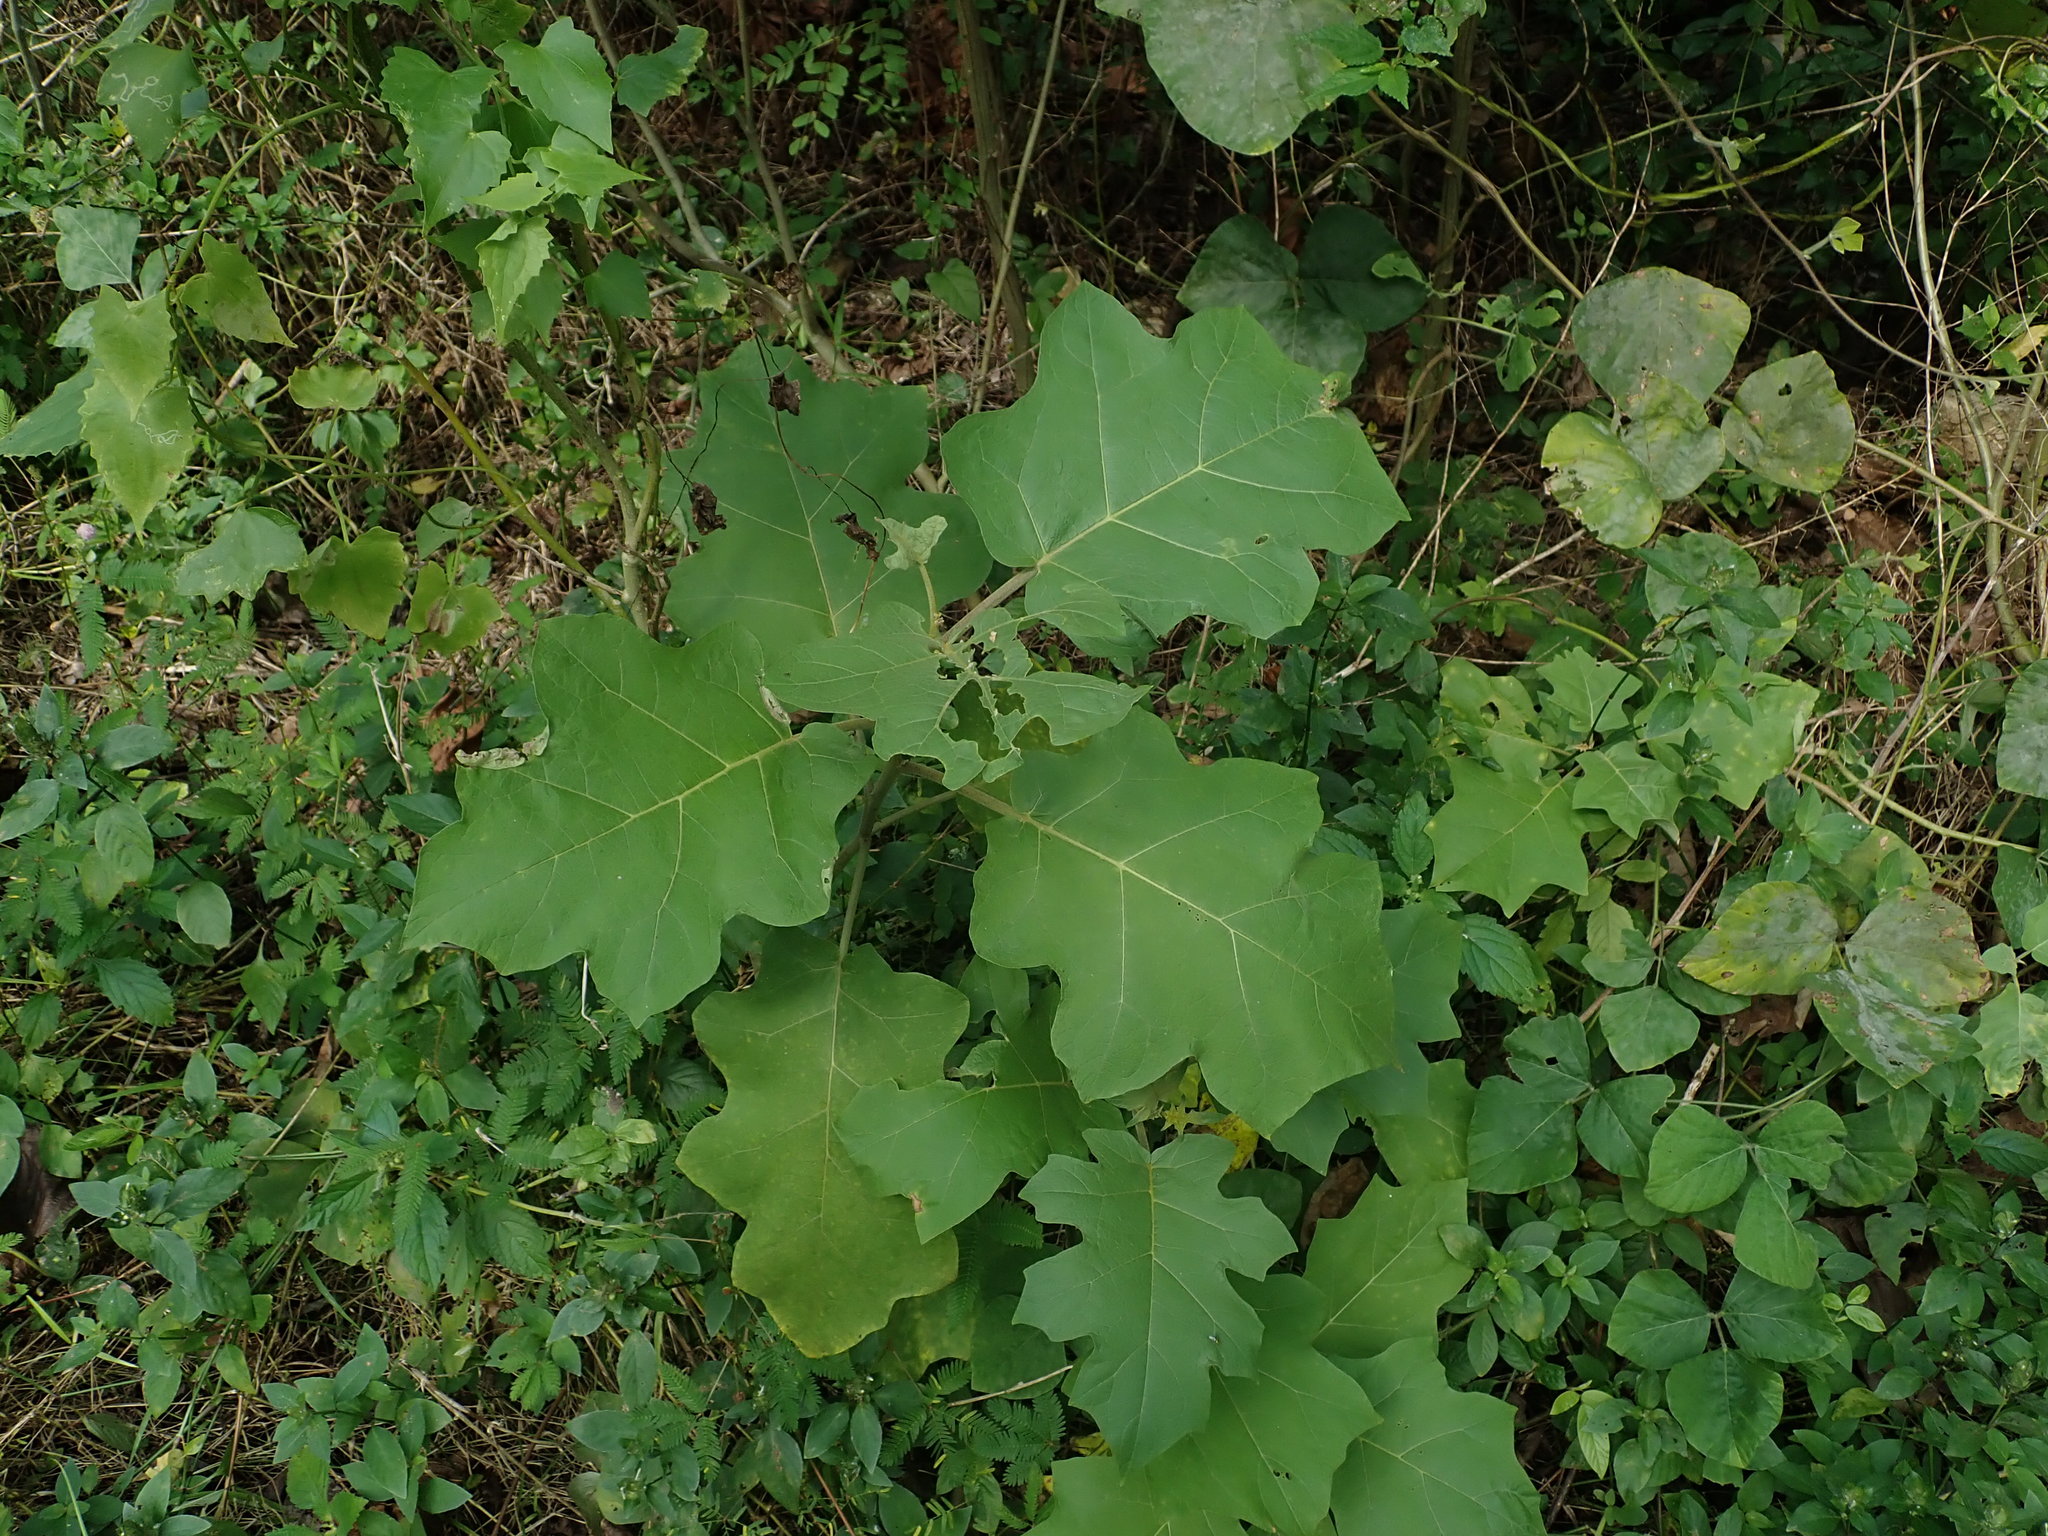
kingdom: Plantae
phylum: Tracheophyta
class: Magnoliopsida
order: Solanales
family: Solanaceae
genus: Solanum
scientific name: Solanum torvum
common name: Turkey berry
